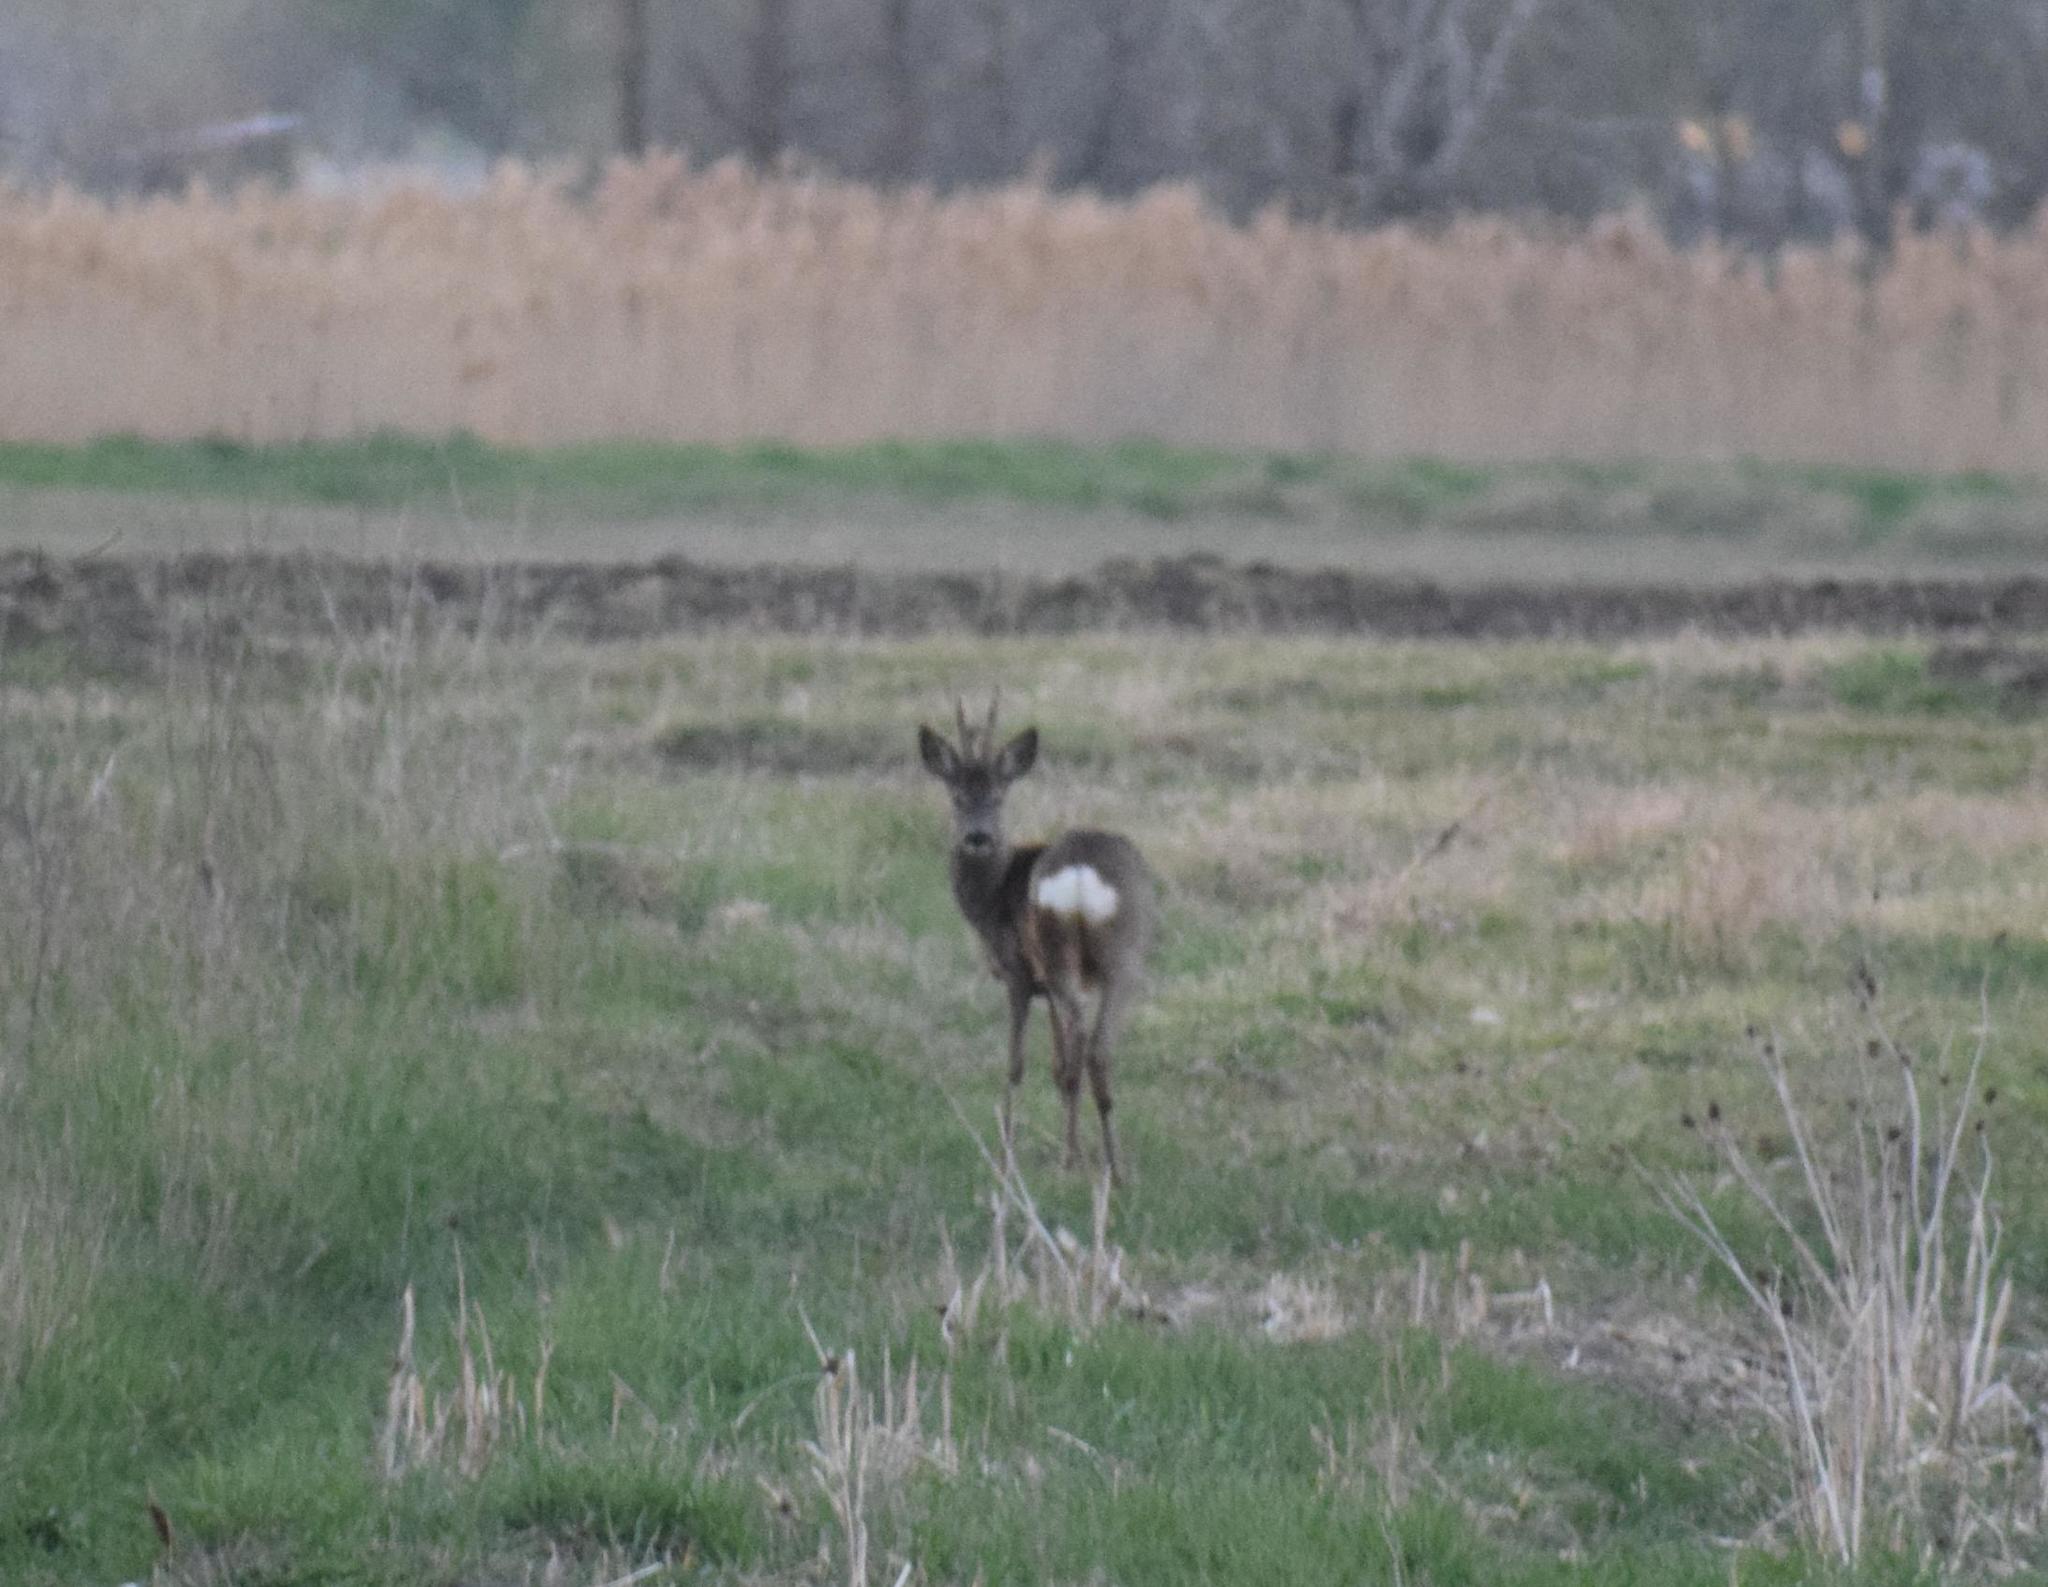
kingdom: Animalia
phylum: Chordata
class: Mammalia
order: Artiodactyla
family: Cervidae
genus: Capreolus
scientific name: Capreolus capreolus
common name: Western roe deer
